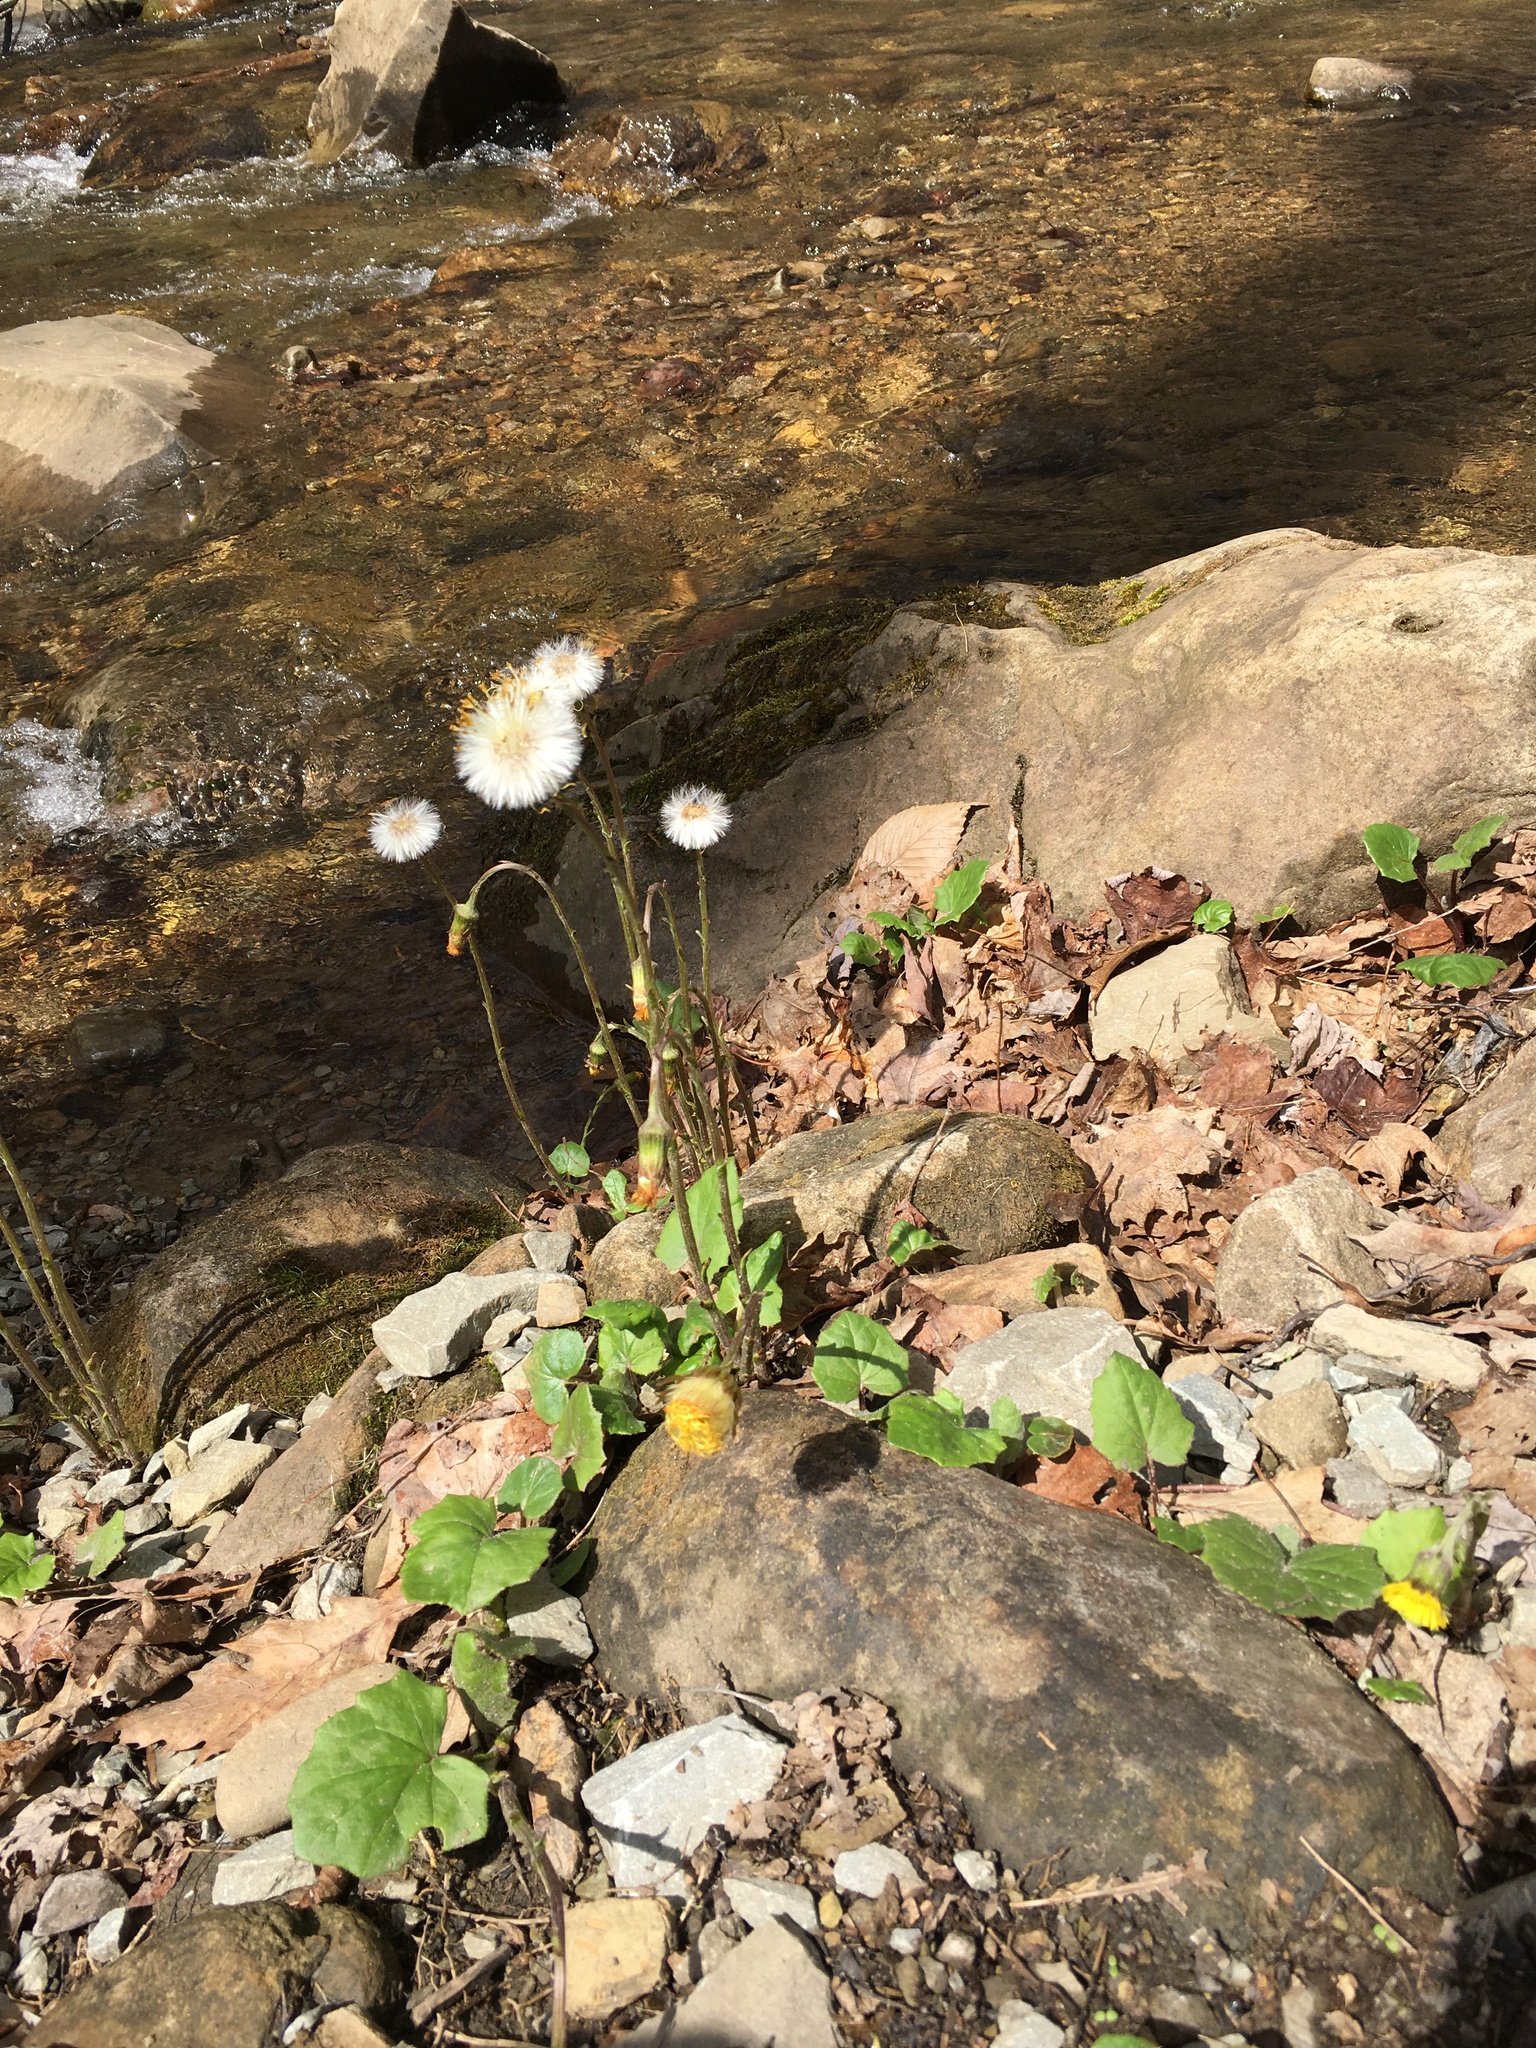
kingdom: Plantae
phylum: Tracheophyta
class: Magnoliopsida
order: Asterales
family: Asteraceae
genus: Tussilago
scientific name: Tussilago farfara
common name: Coltsfoot
